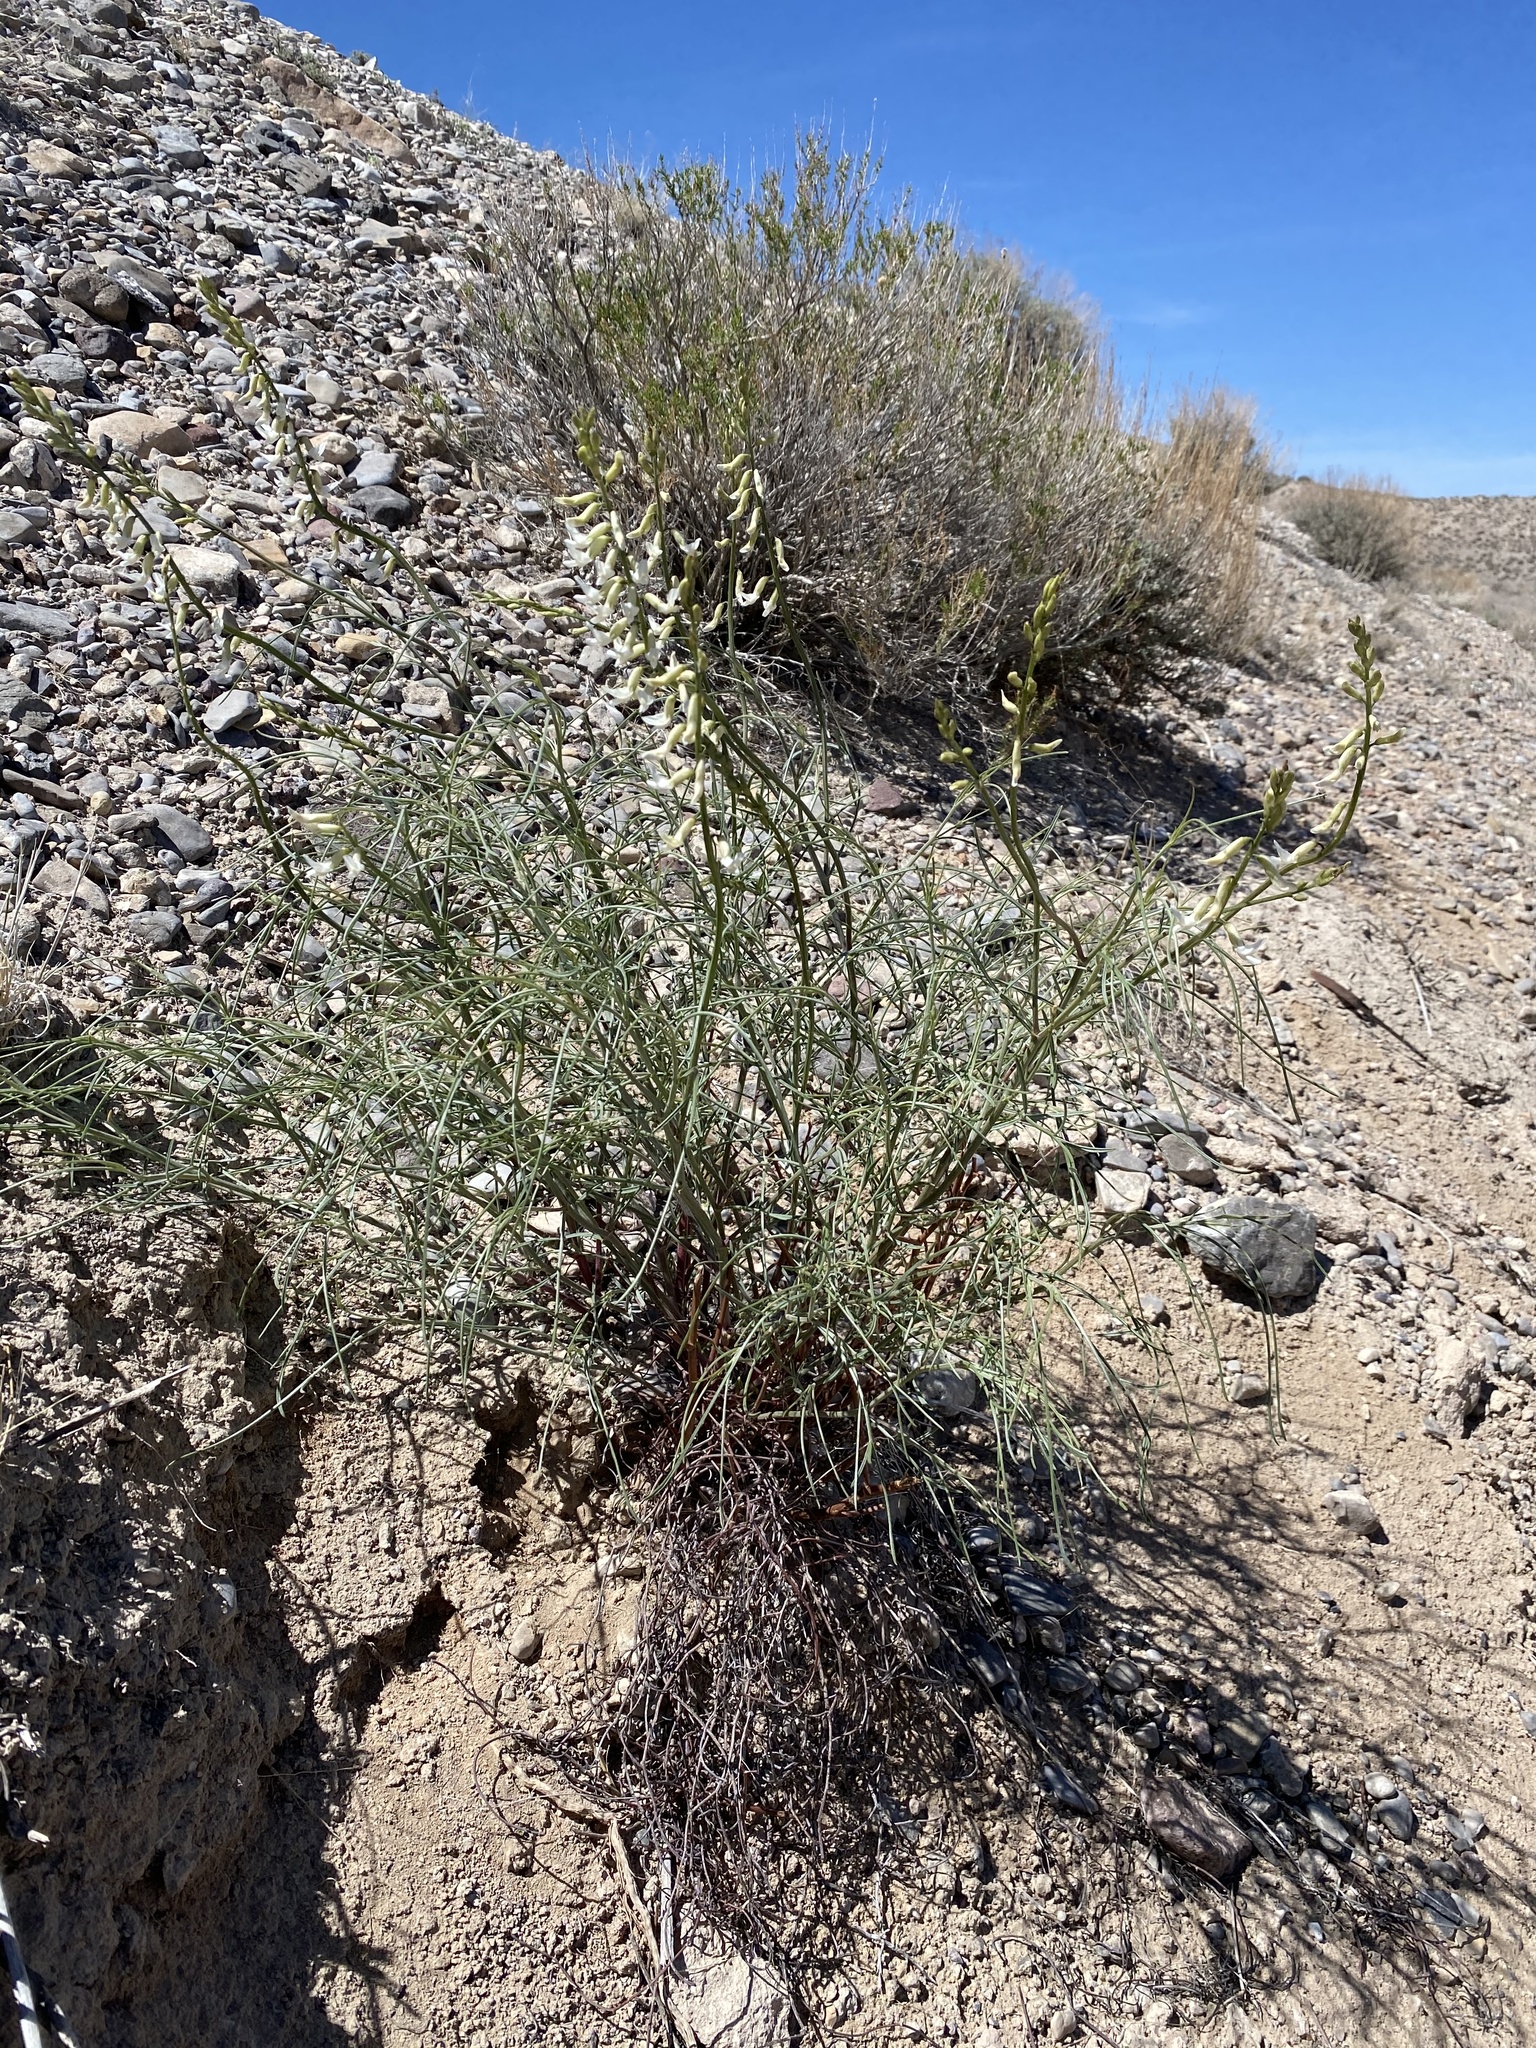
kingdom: Plantae
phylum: Tracheophyta
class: Magnoliopsida
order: Fabales
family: Fabaceae
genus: Astragalus
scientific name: Astragalus lonchocarpus
